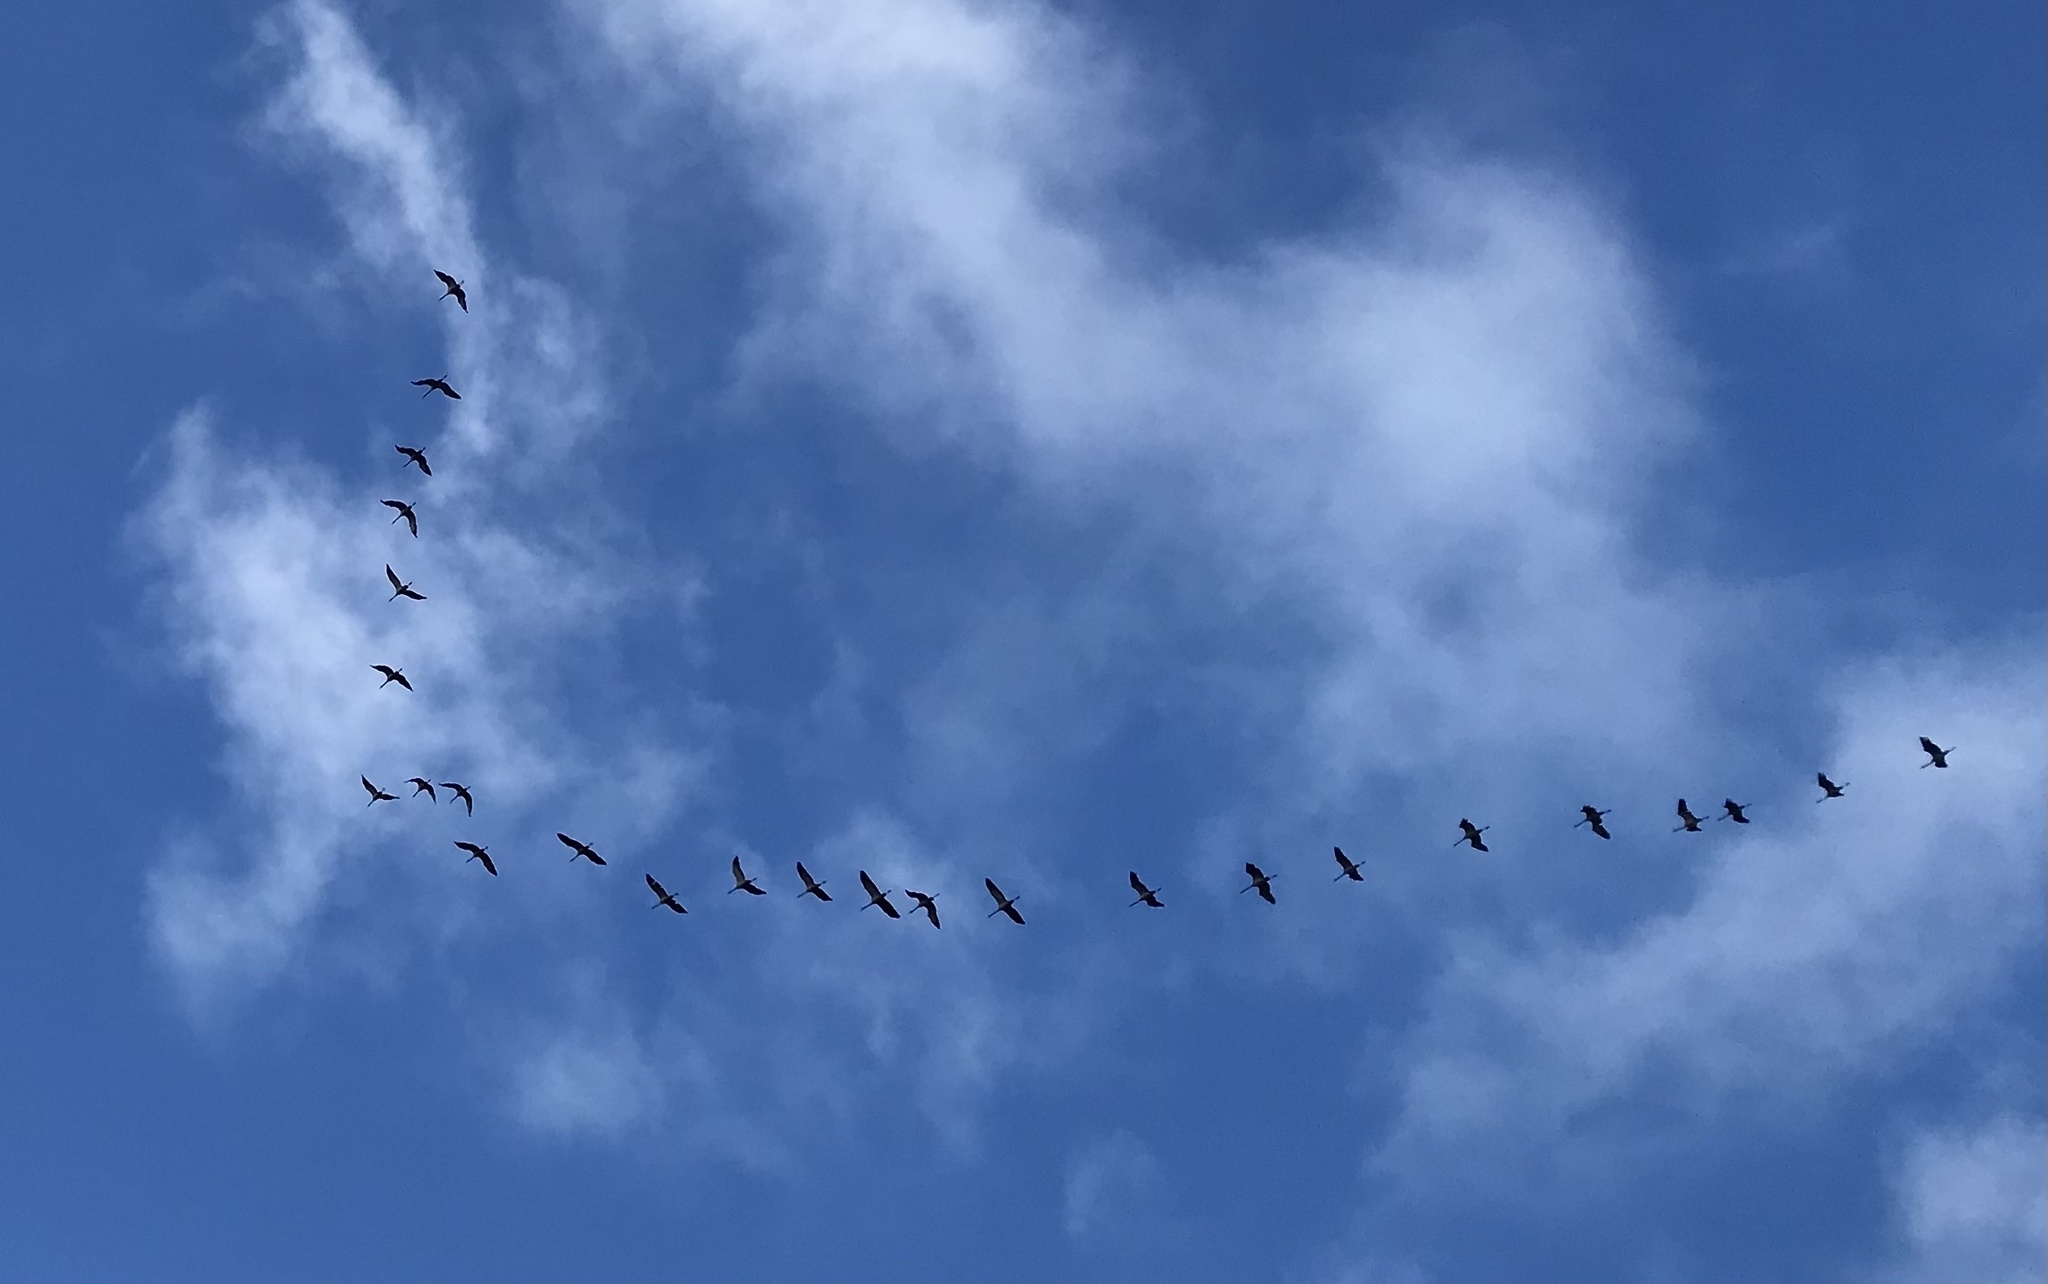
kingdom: Animalia
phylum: Chordata
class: Aves
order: Gruiformes
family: Gruidae
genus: Grus
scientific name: Grus grus
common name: Common crane
